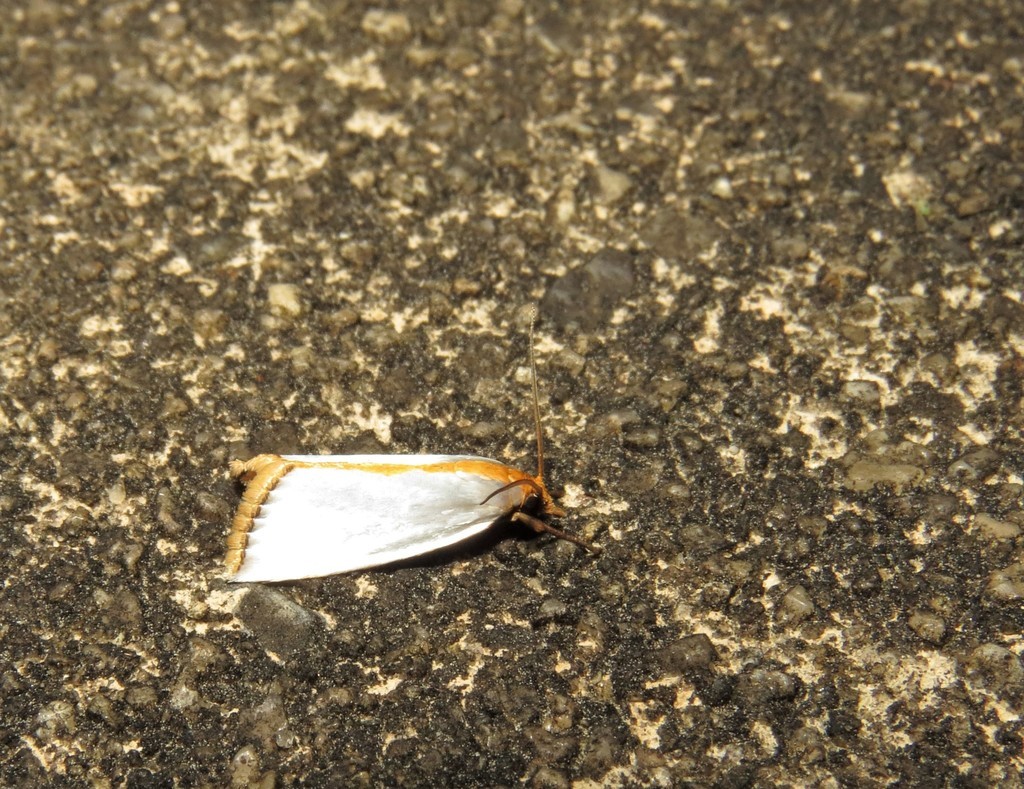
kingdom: Animalia
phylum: Arthropoda
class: Insecta
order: Lepidoptera
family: Crambidae
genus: Argyria
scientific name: Argyria
